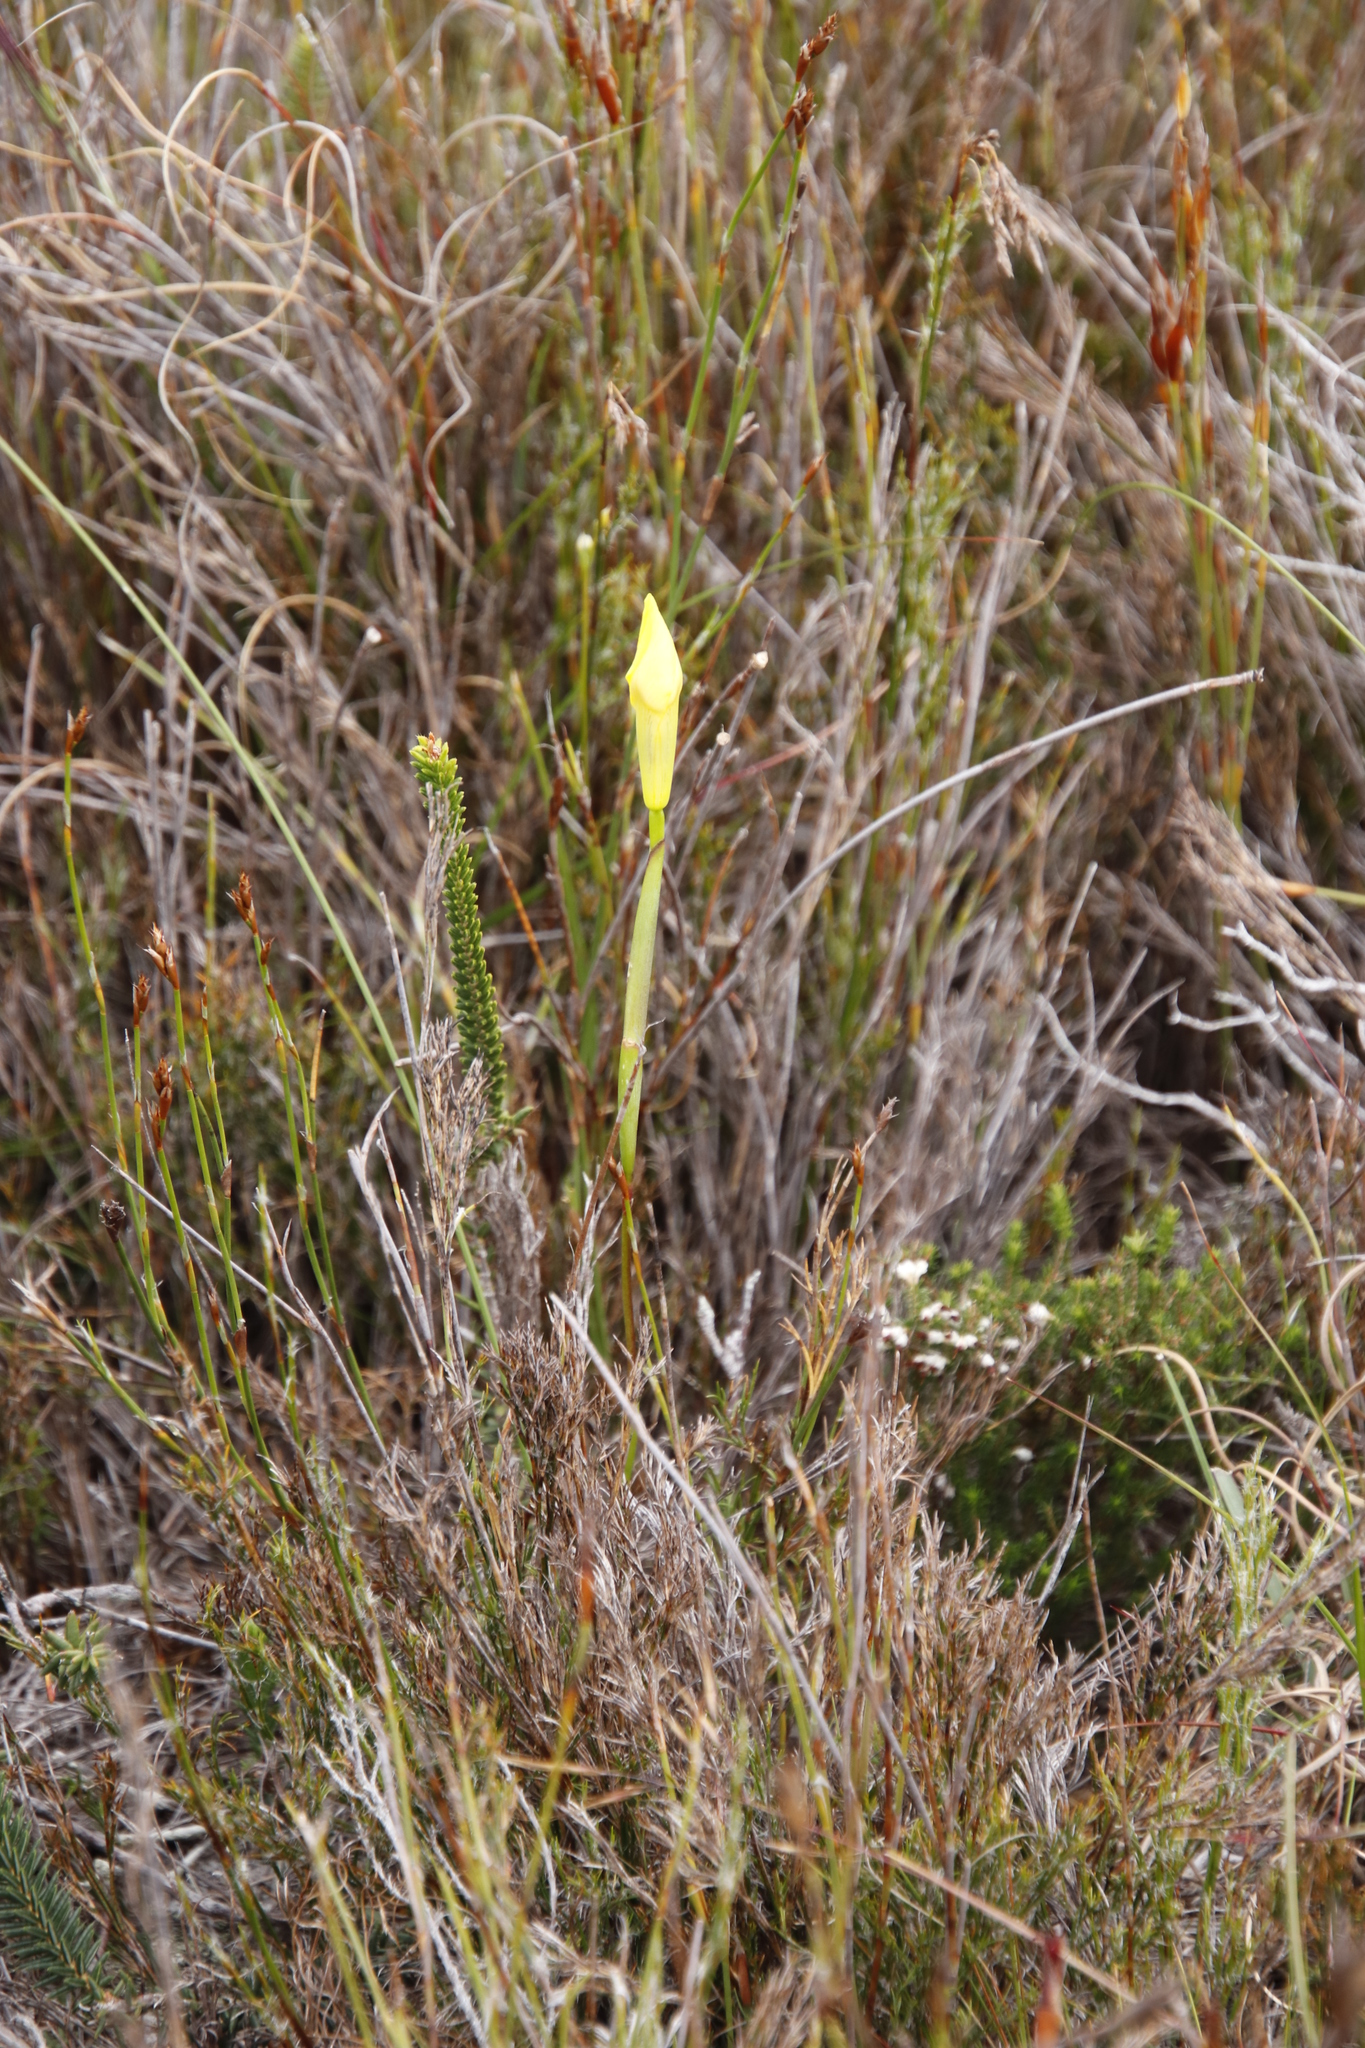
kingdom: Plantae
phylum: Tracheophyta
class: Liliopsida
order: Asparagales
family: Iridaceae
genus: Moraea
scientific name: Moraea neglecta
